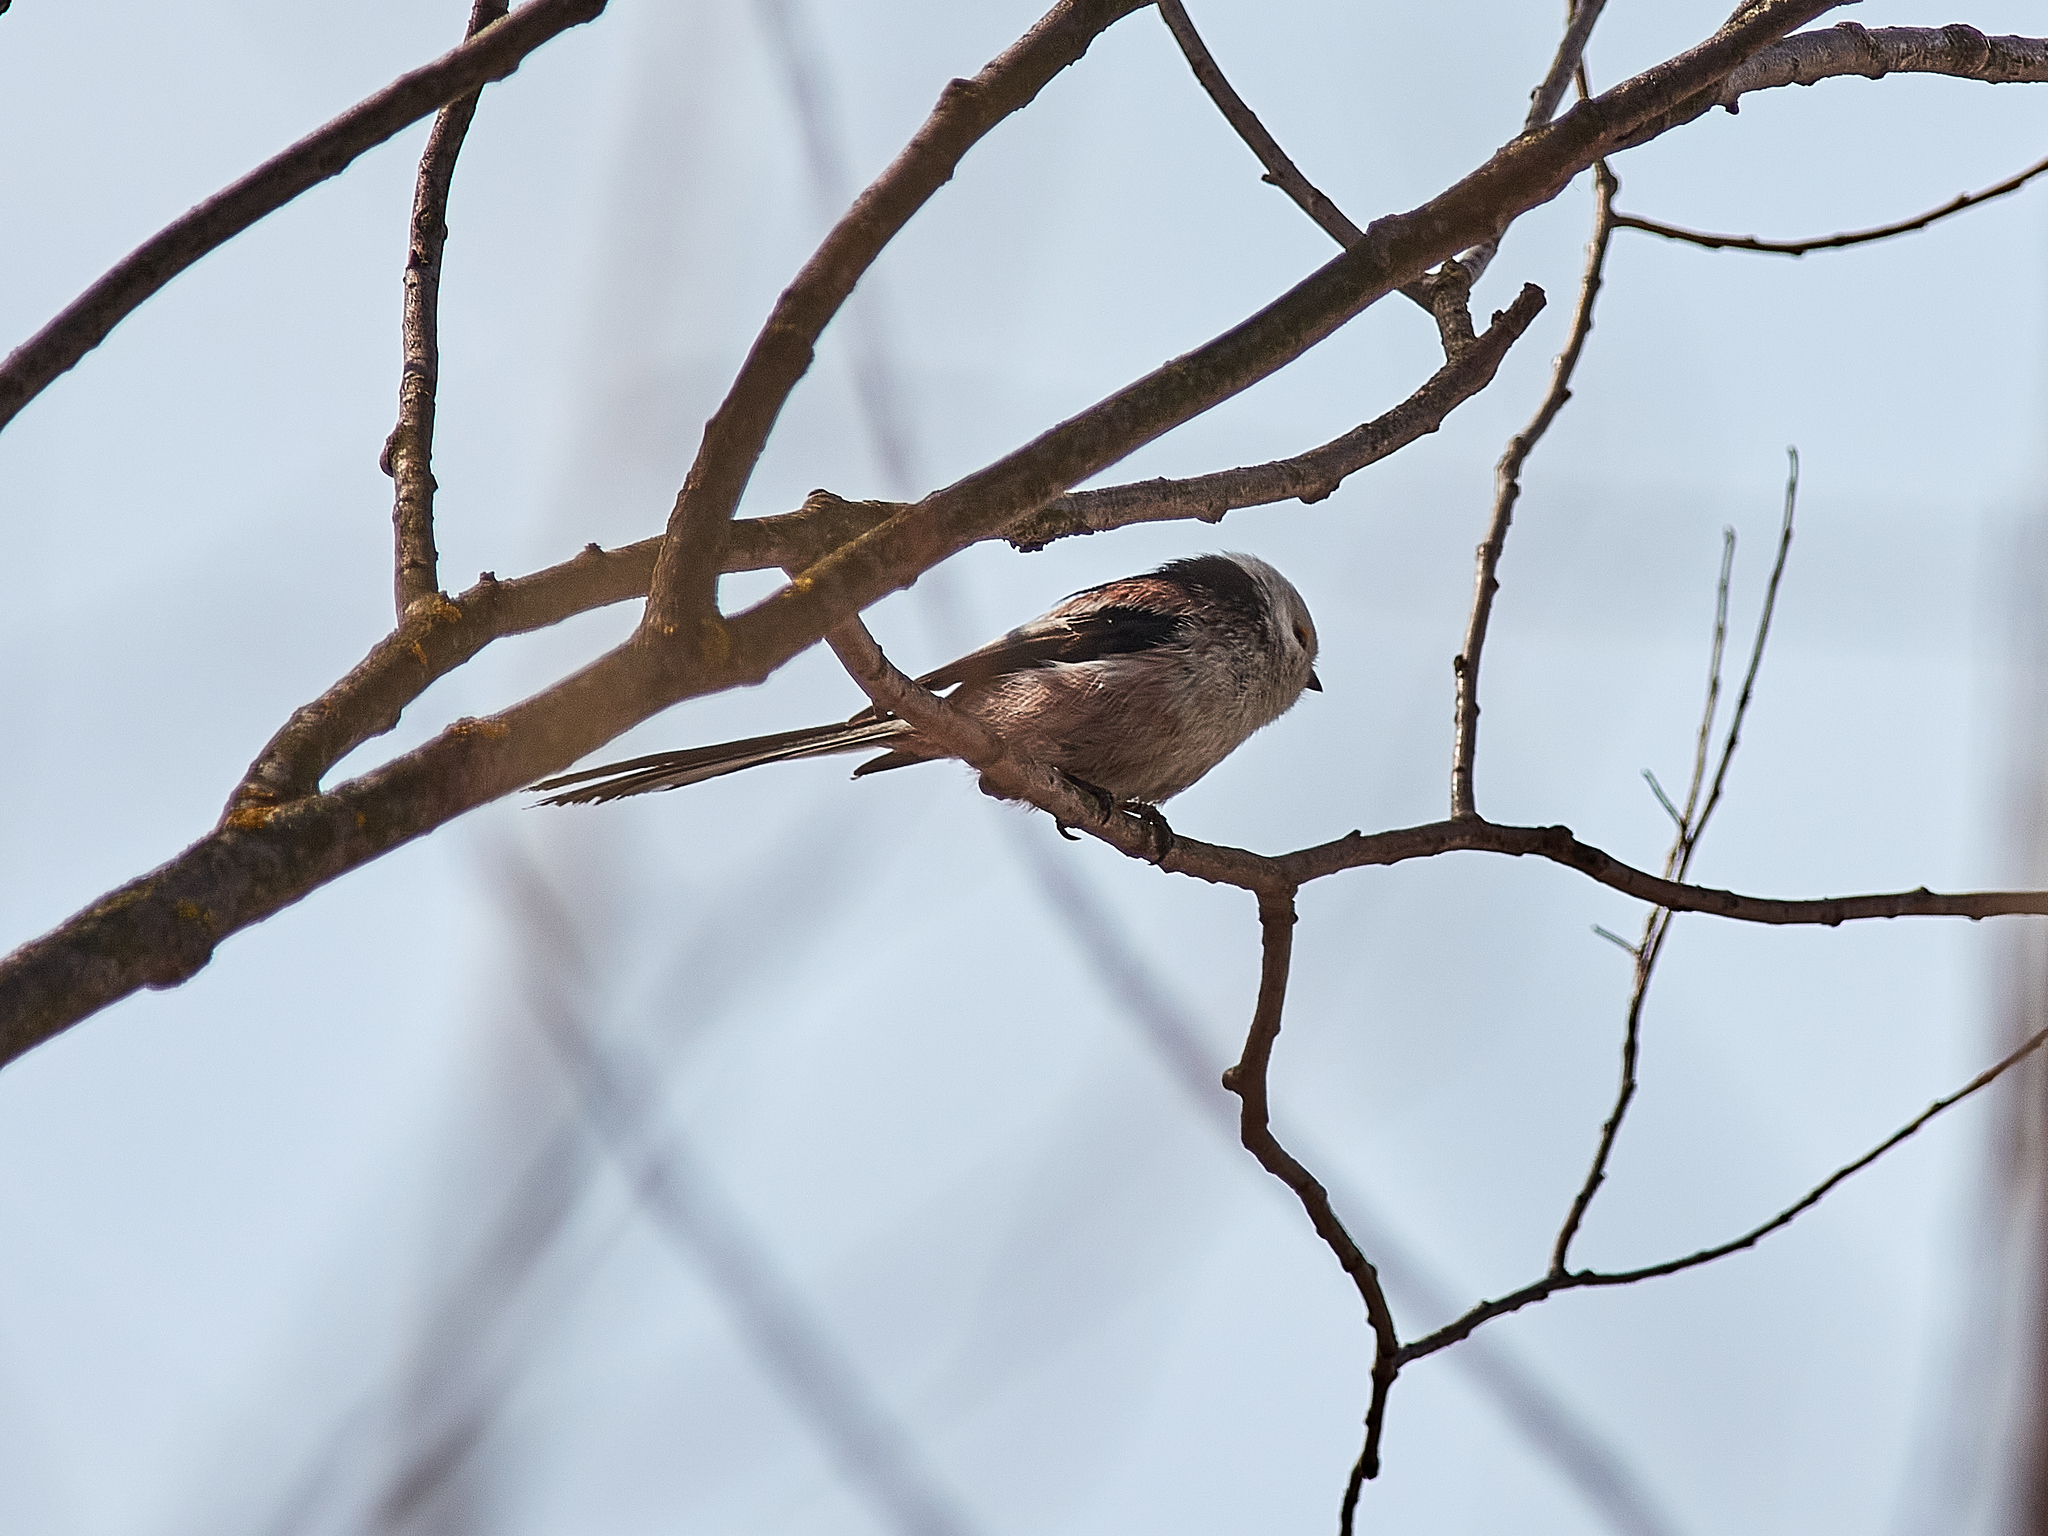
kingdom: Animalia
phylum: Chordata
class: Aves
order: Passeriformes
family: Aegithalidae
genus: Aegithalos
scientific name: Aegithalos caudatus
